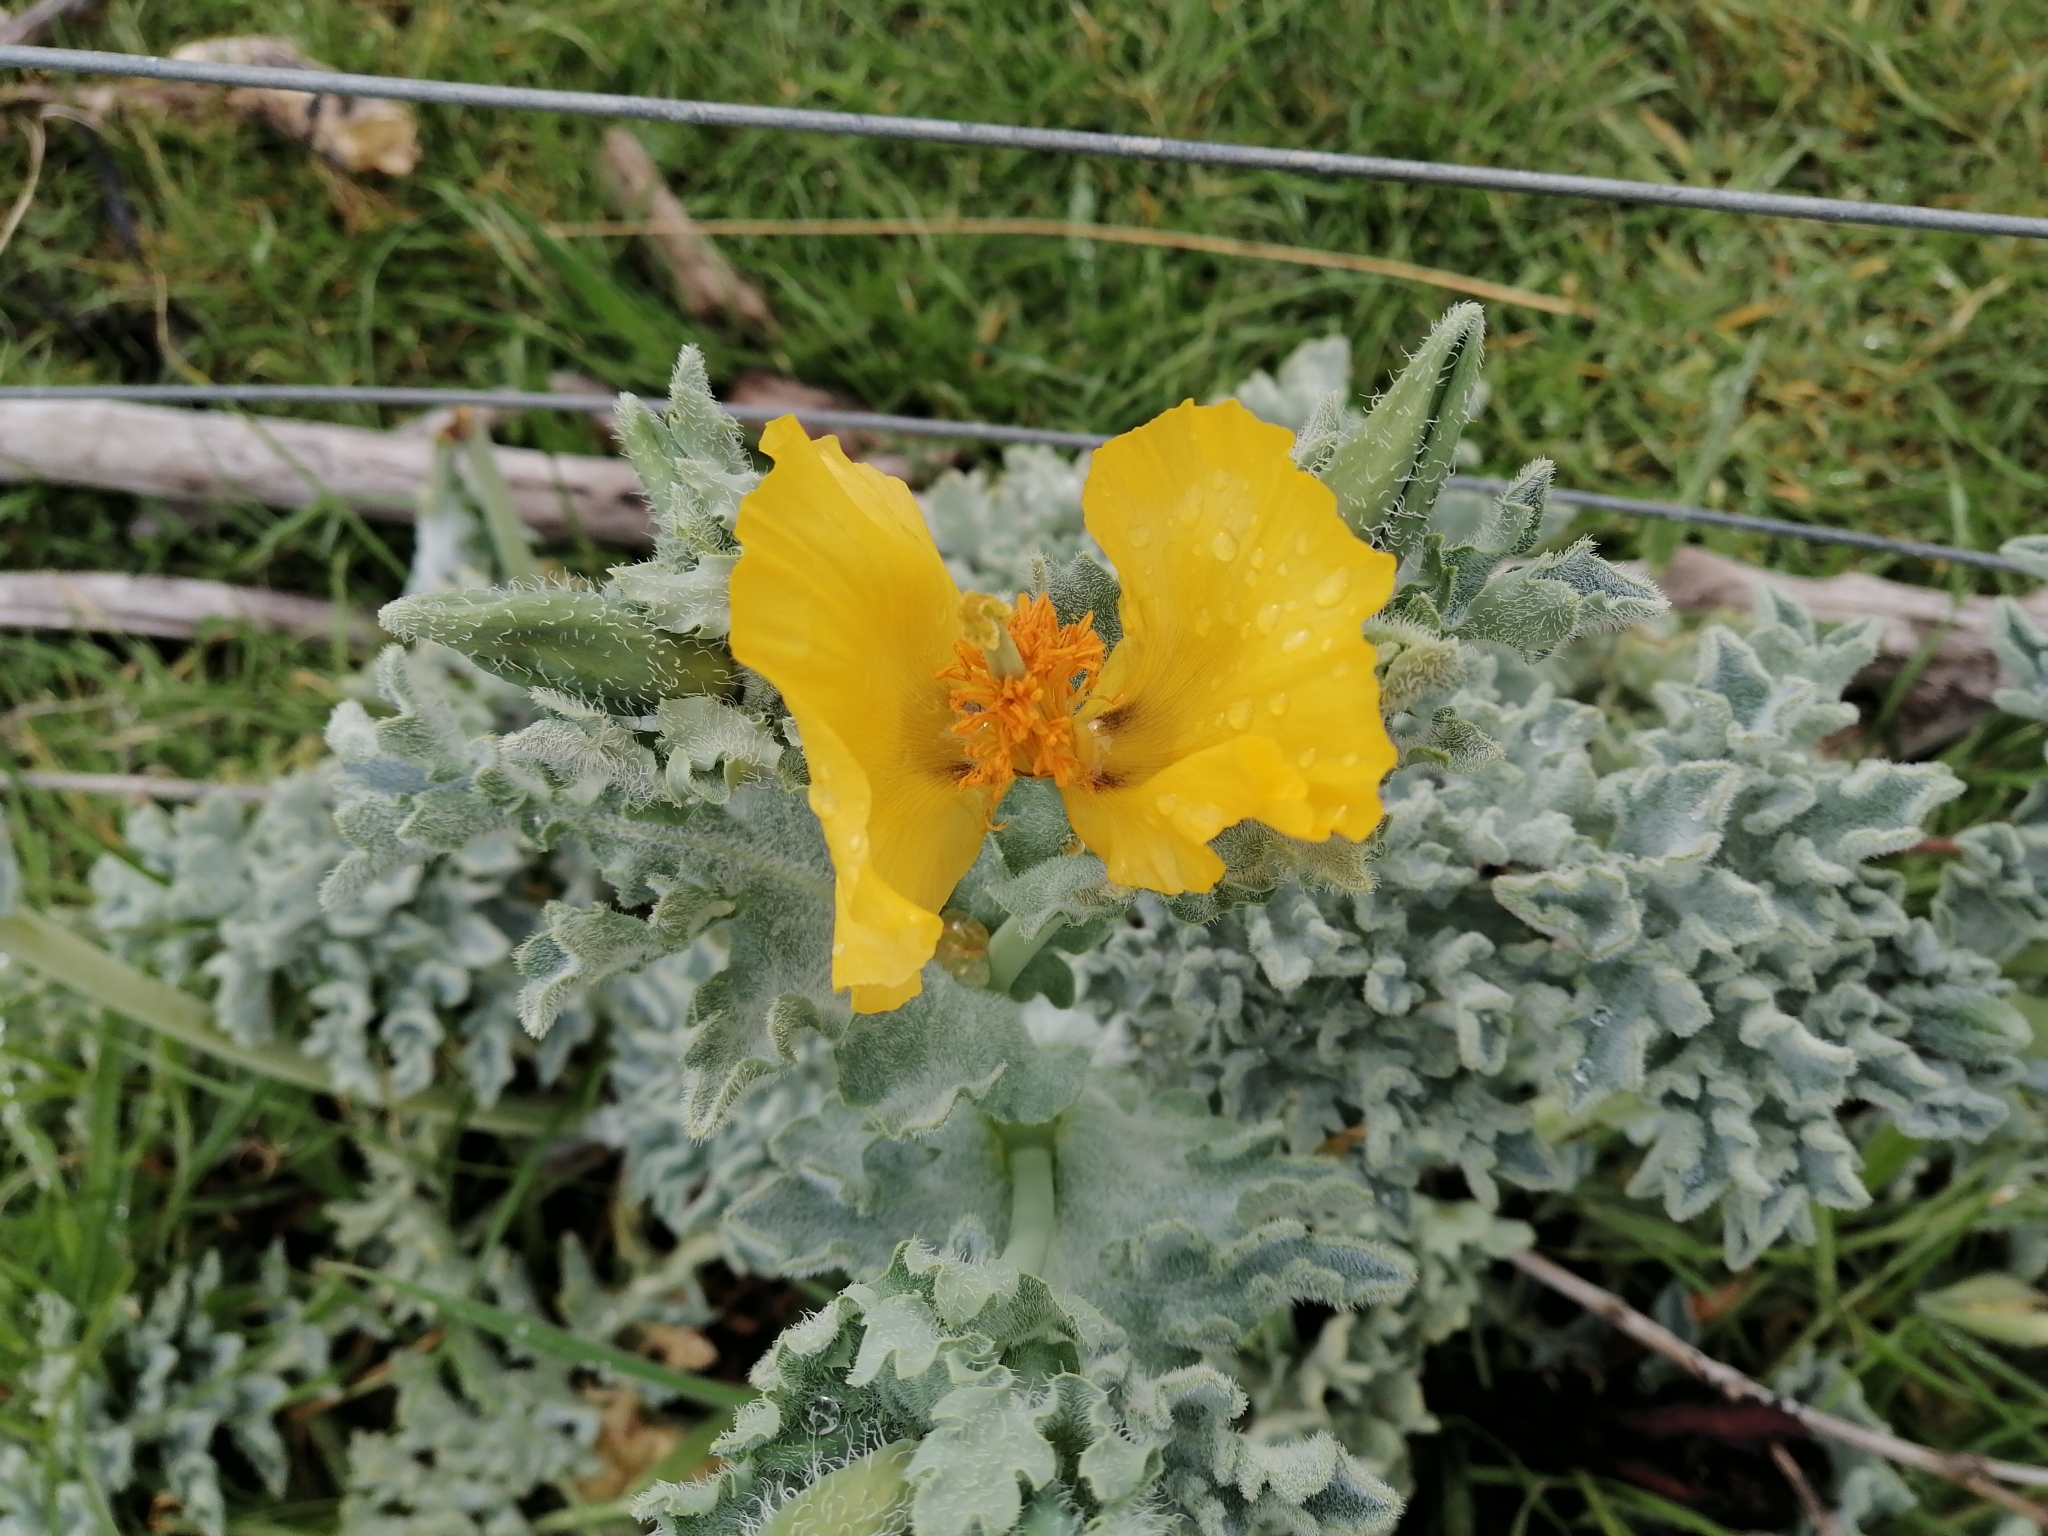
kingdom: Plantae
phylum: Tracheophyta
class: Magnoliopsida
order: Ranunculales
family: Papaveraceae
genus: Glaucium
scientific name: Glaucium flavum
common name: Yellow horned-poppy
